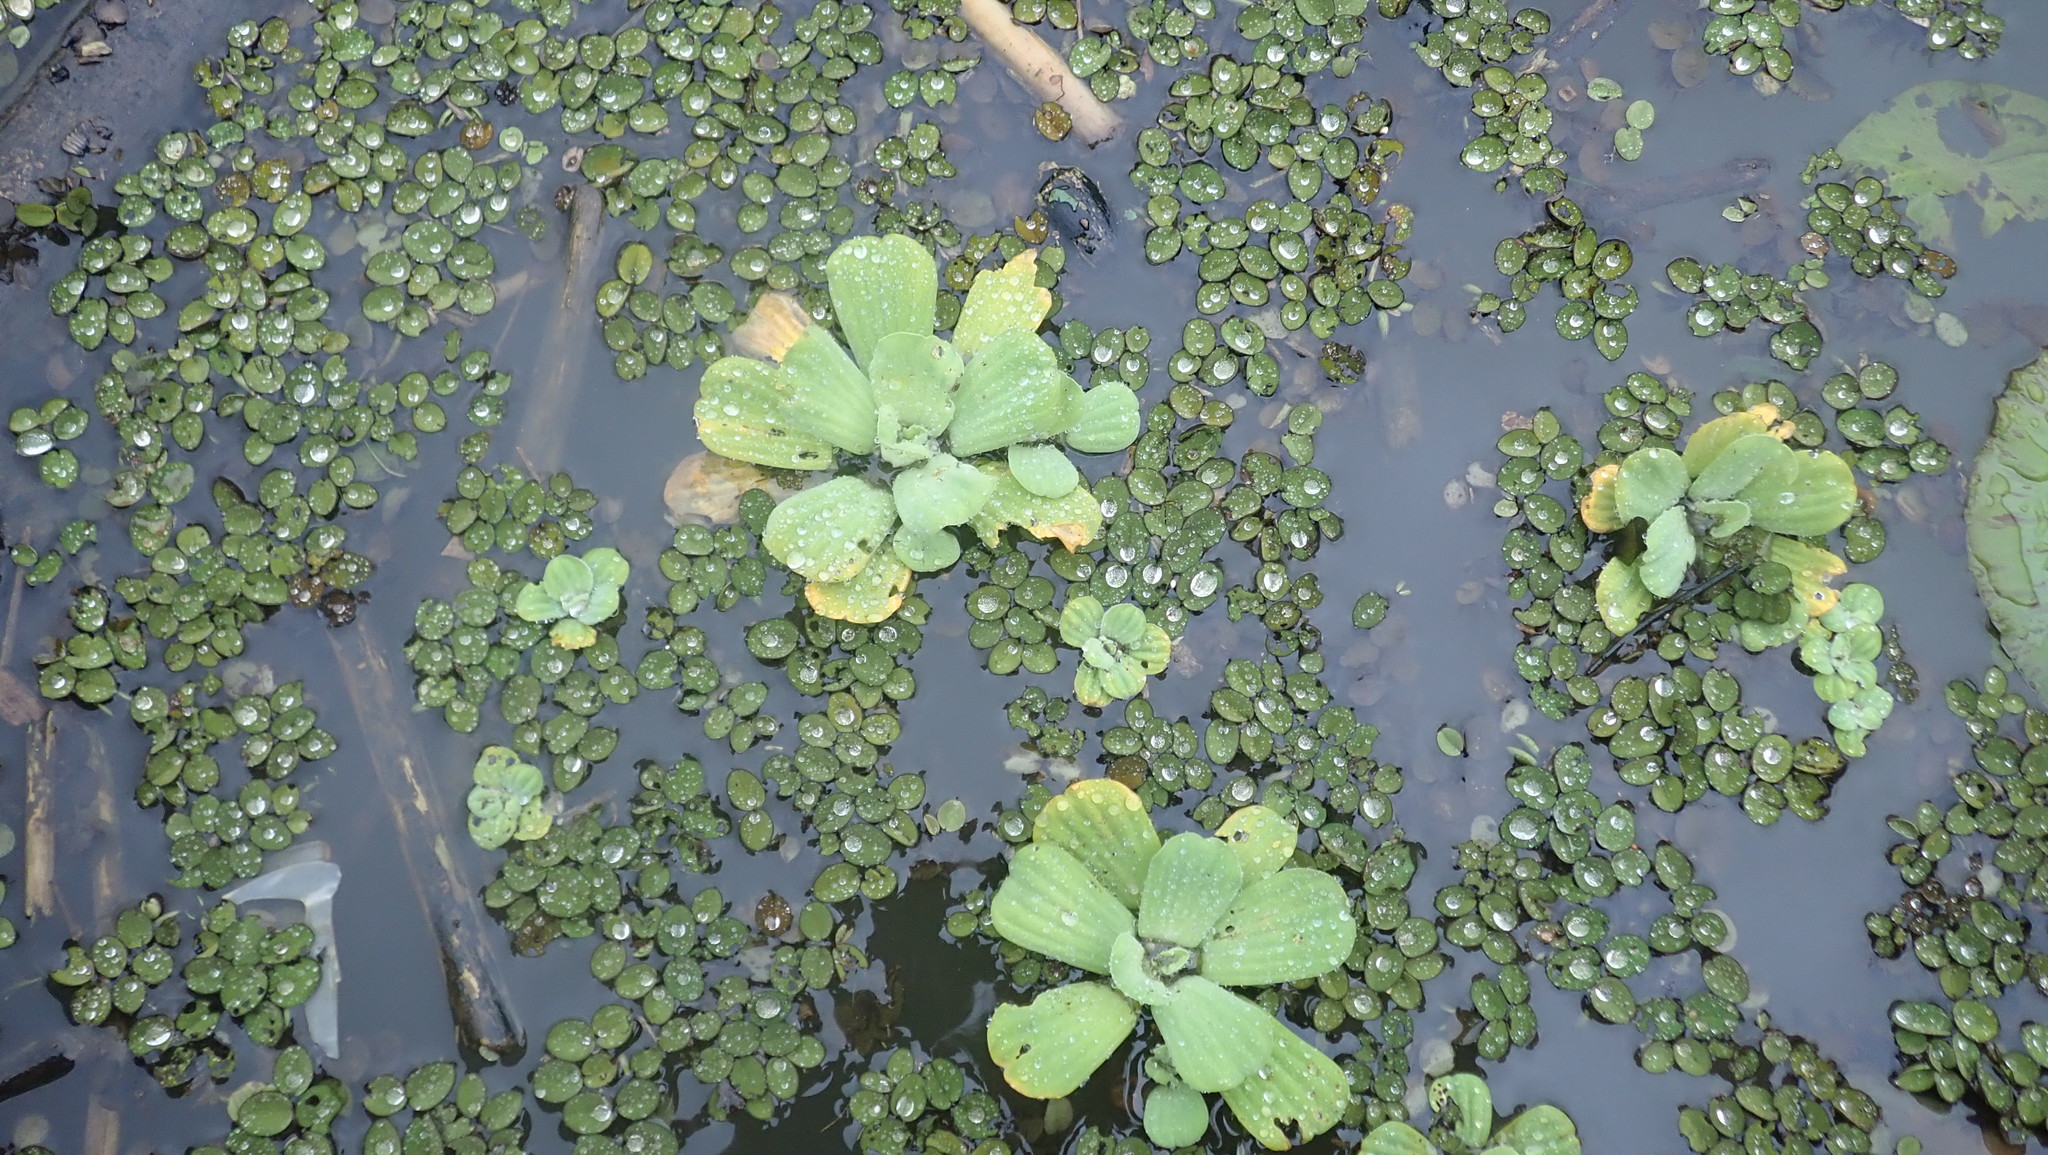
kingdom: Plantae
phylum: Tracheophyta
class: Liliopsida
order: Alismatales
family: Araceae
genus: Pistia
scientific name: Pistia stratiotes
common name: Water lettuce
